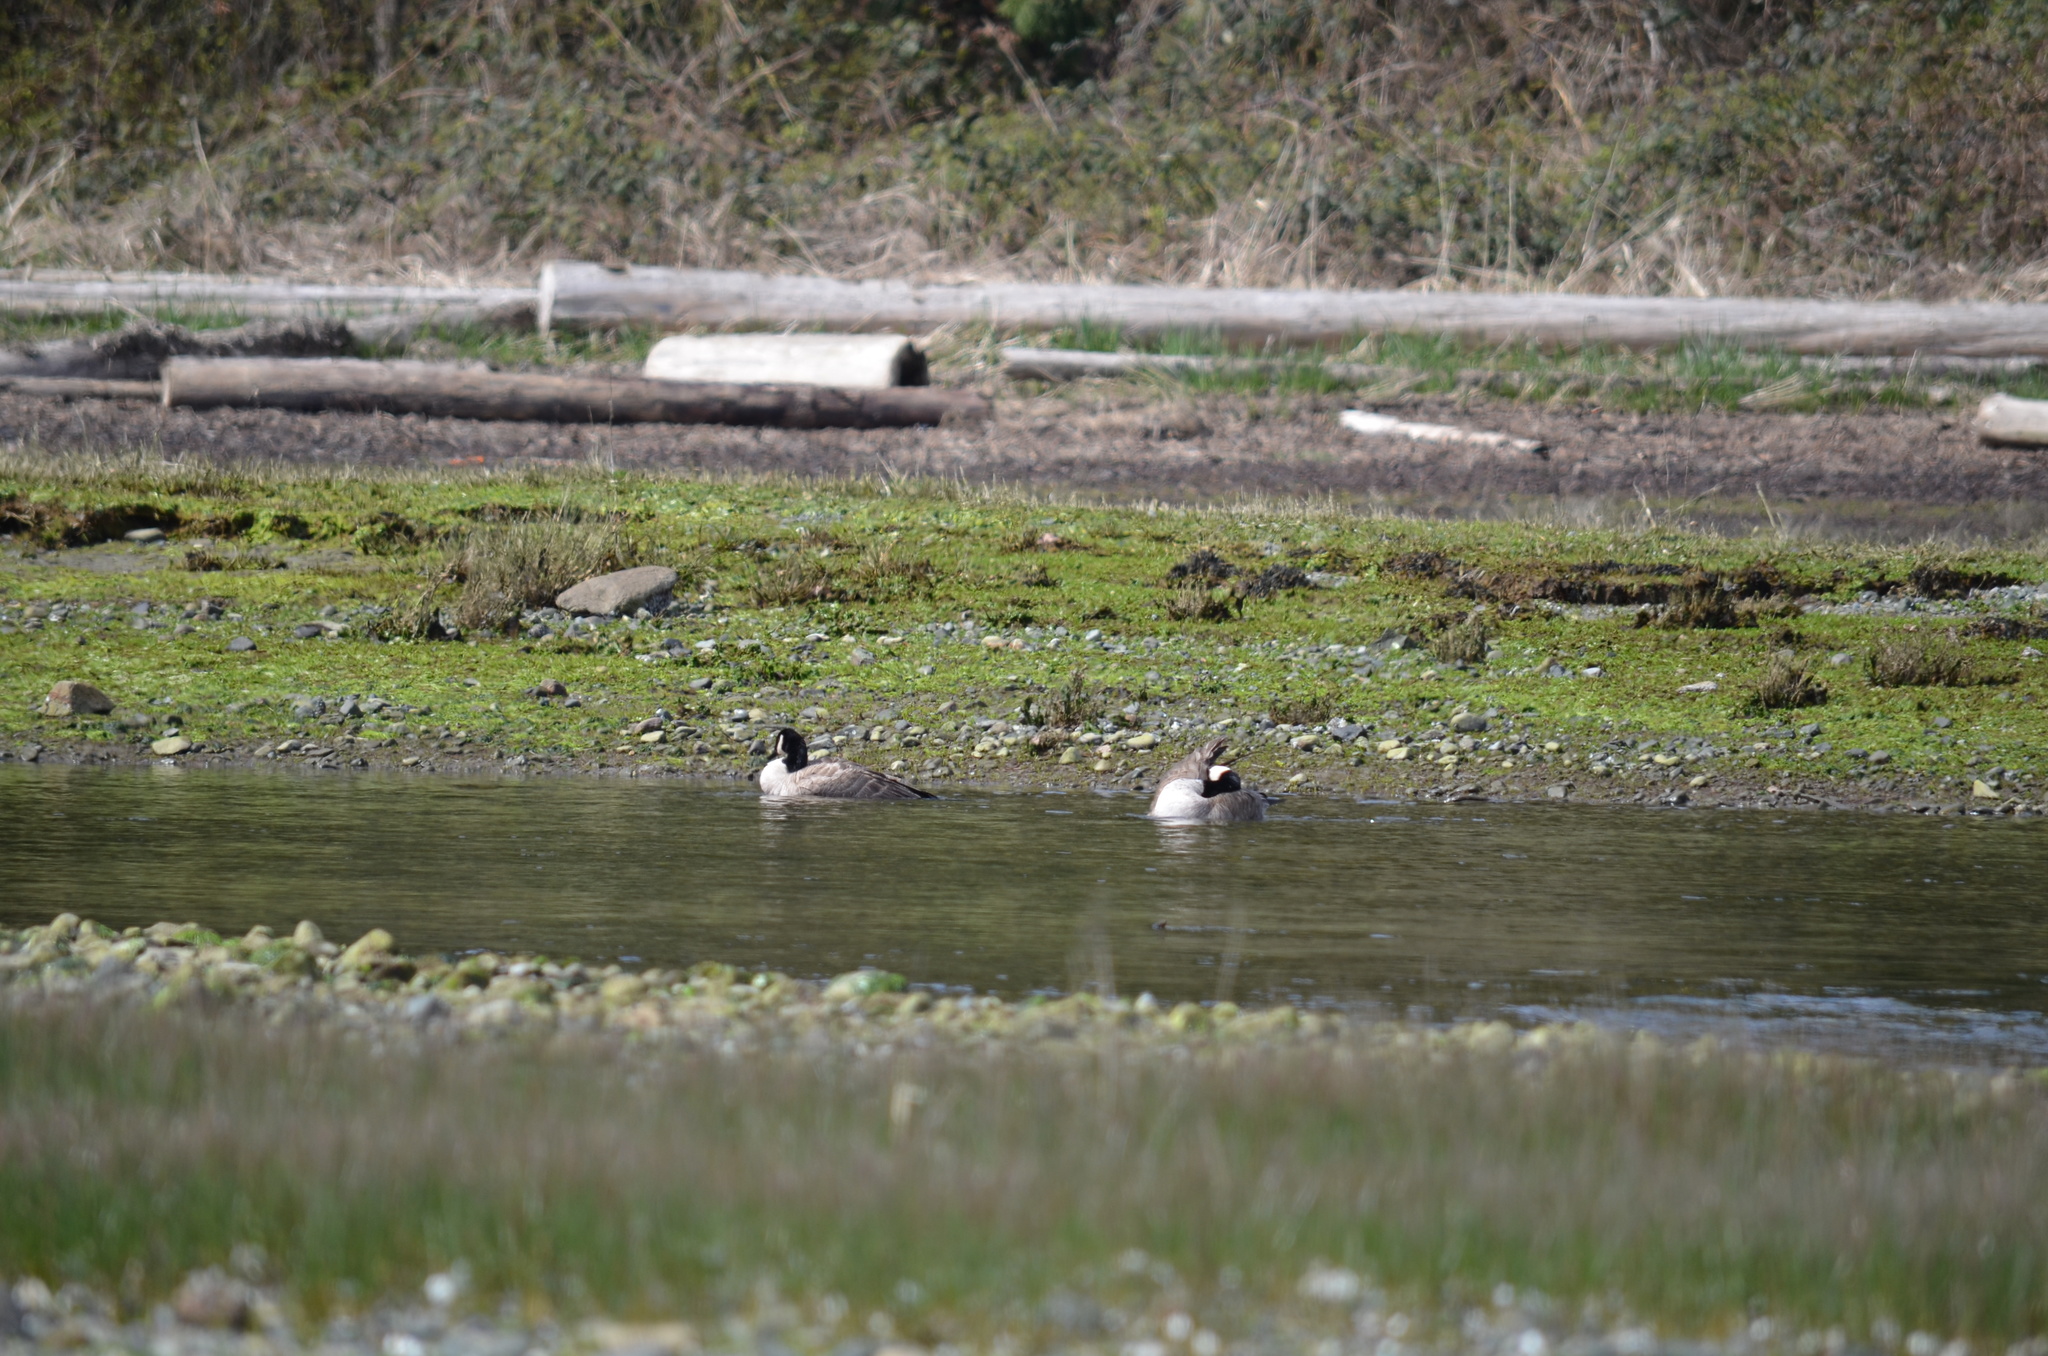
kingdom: Animalia
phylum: Chordata
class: Aves
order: Anseriformes
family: Anatidae
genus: Branta
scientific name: Branta canadensis
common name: Canada goose
